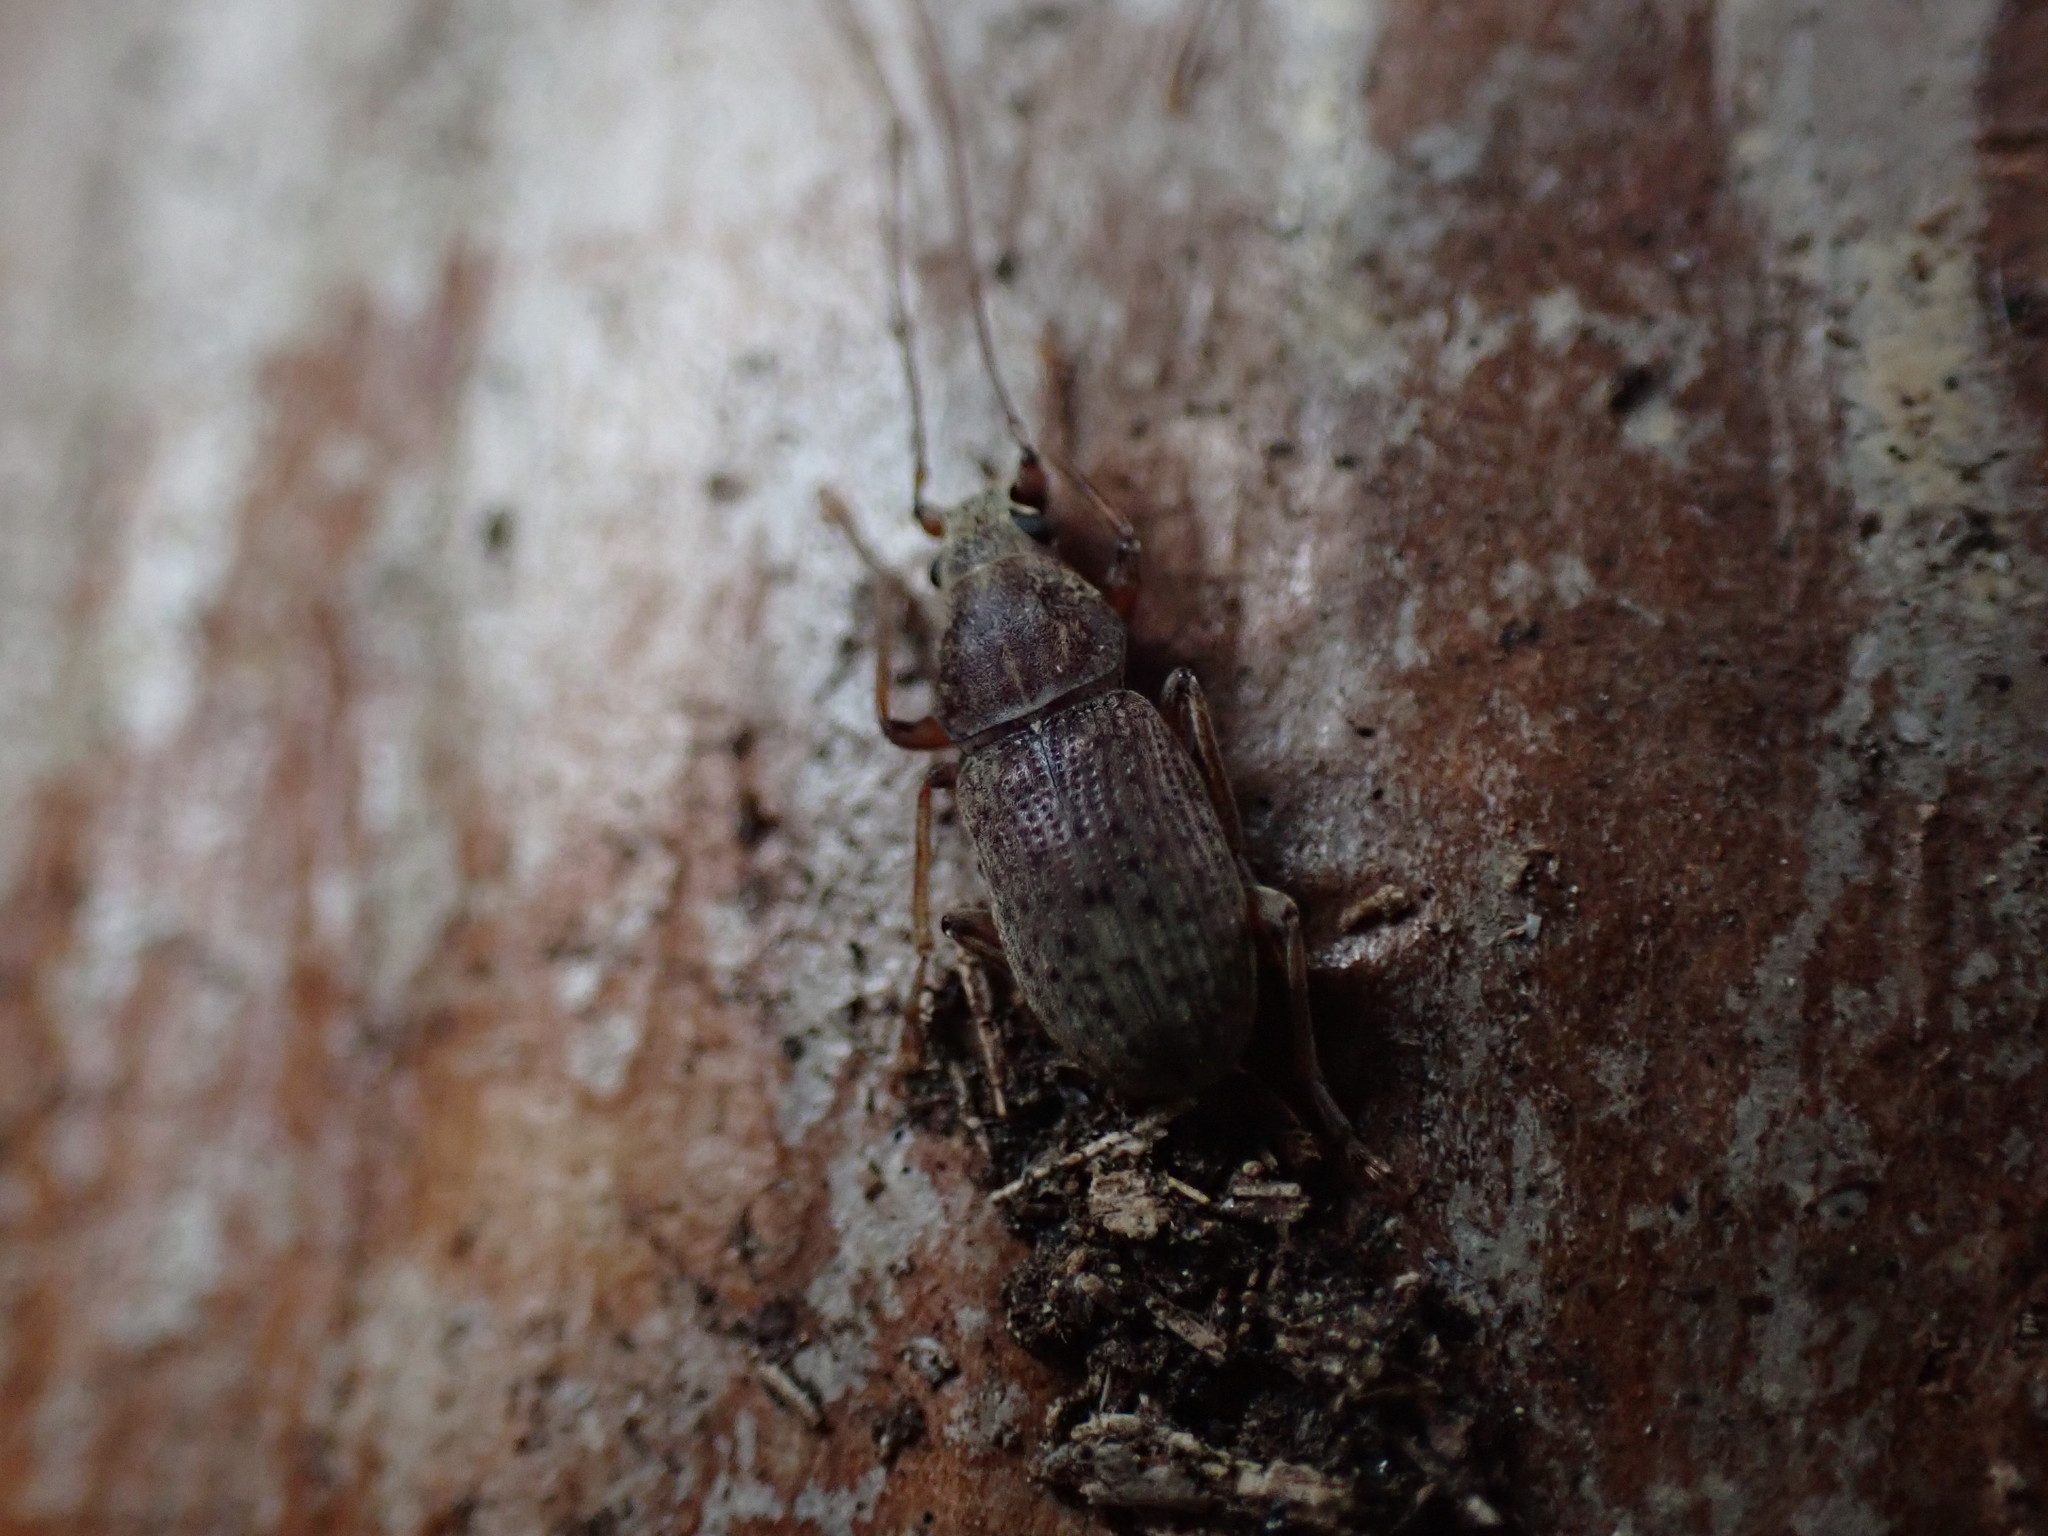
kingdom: Animalia
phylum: Arthropoda
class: Insecta
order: Coleoptera
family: Anthribidae
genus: Arecopais
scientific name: Arecopais spectabilis
